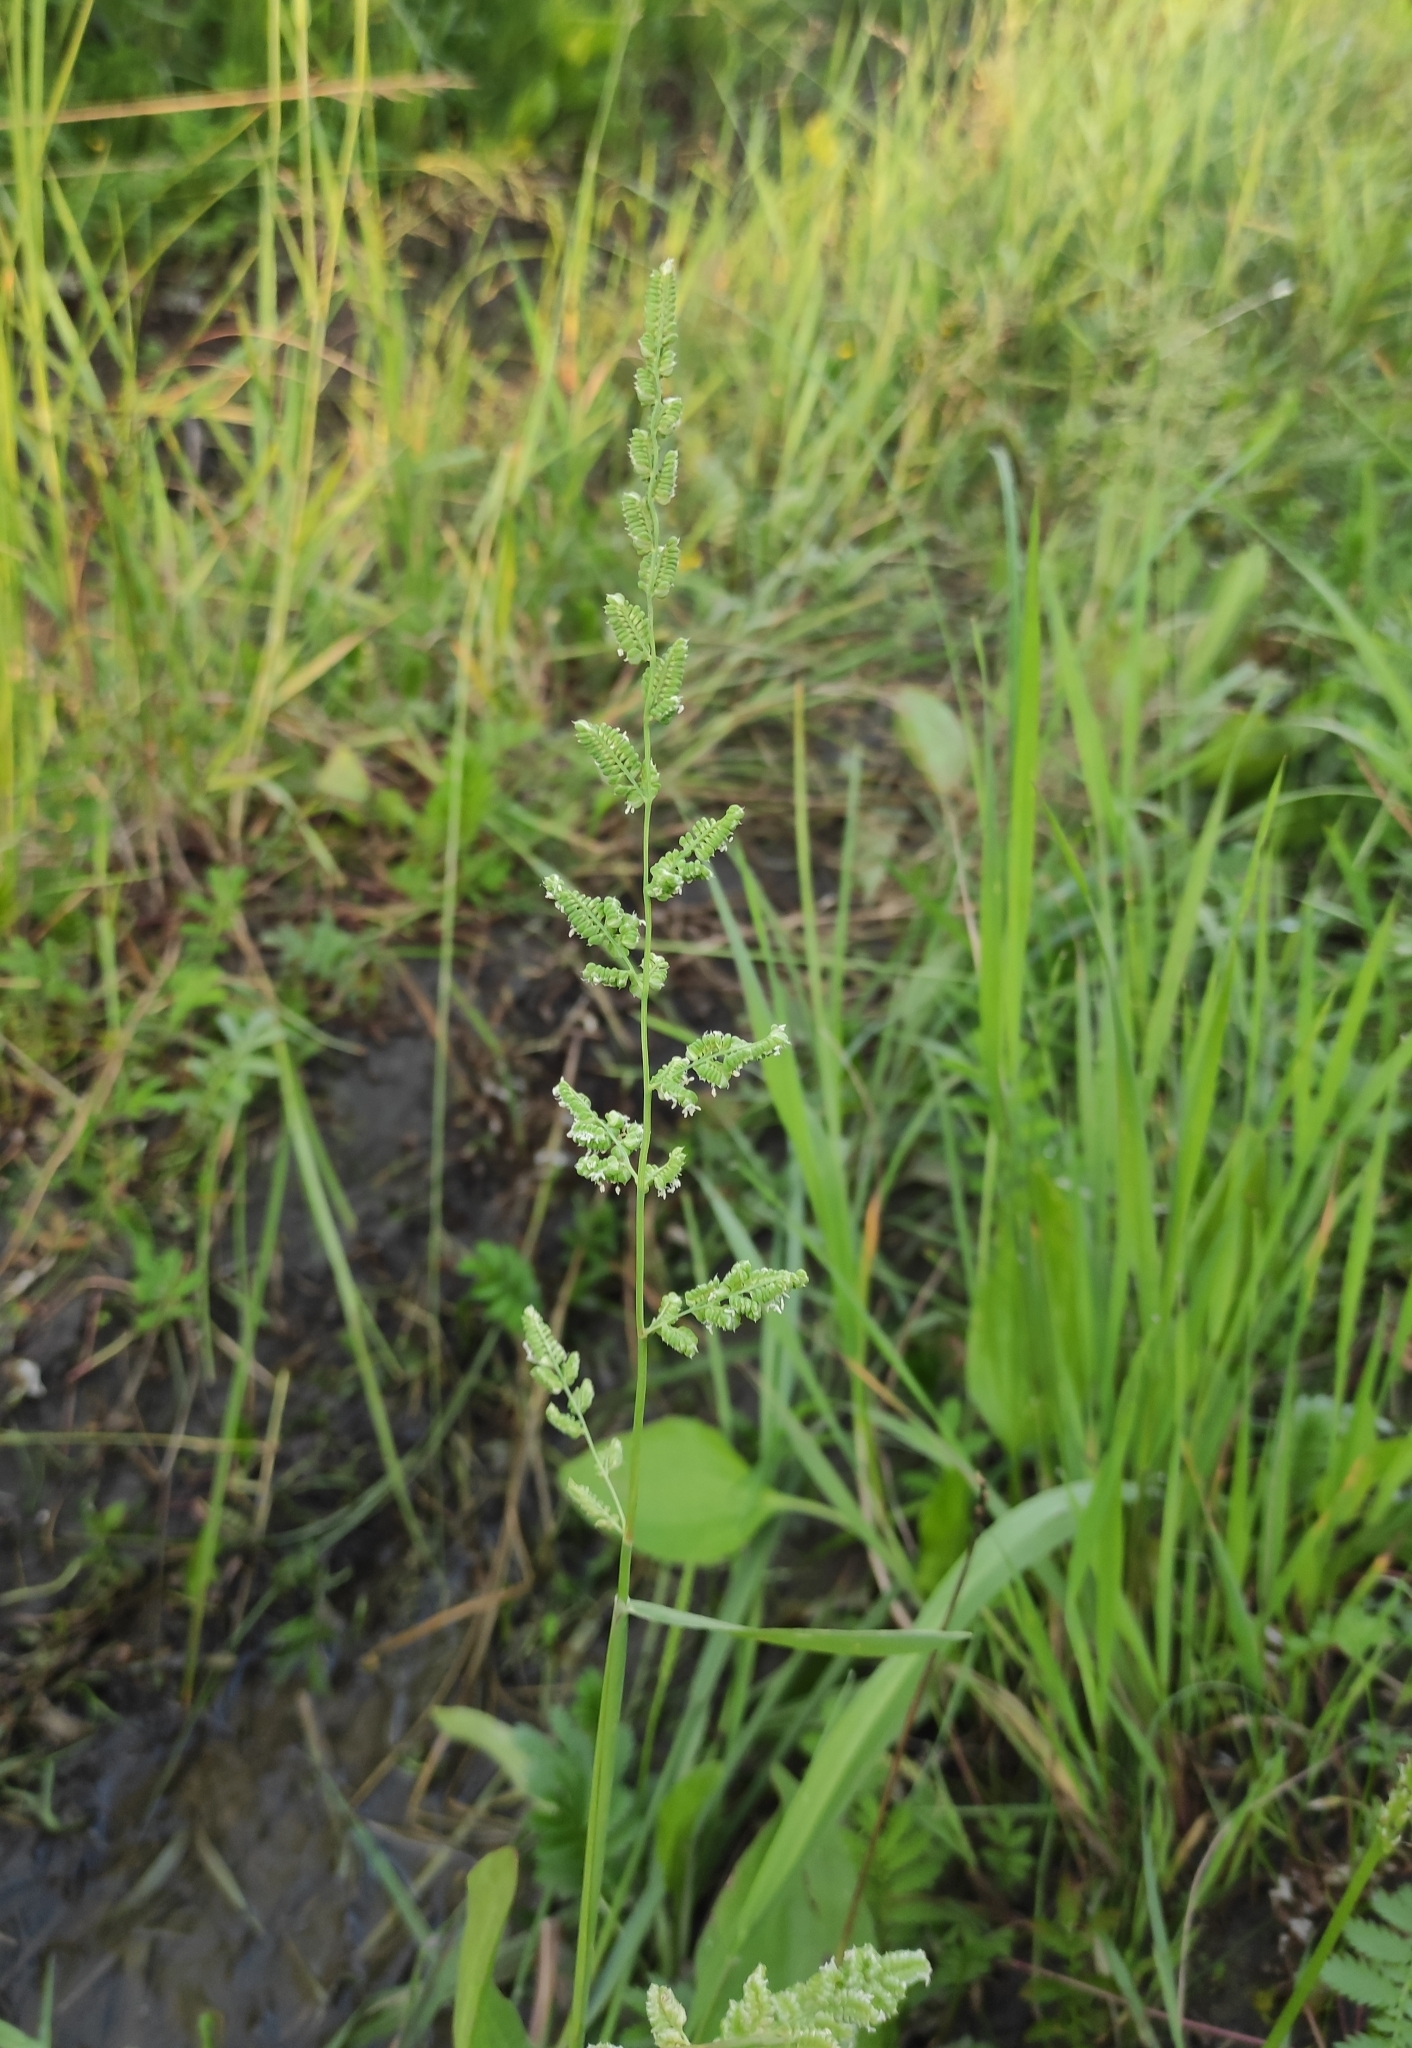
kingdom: Plantae
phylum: Tracheophyta
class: Liliopsida
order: Poales
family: Poaceae
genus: Beckmannia
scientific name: Beckmannia syzigachne
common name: American slough-grass
